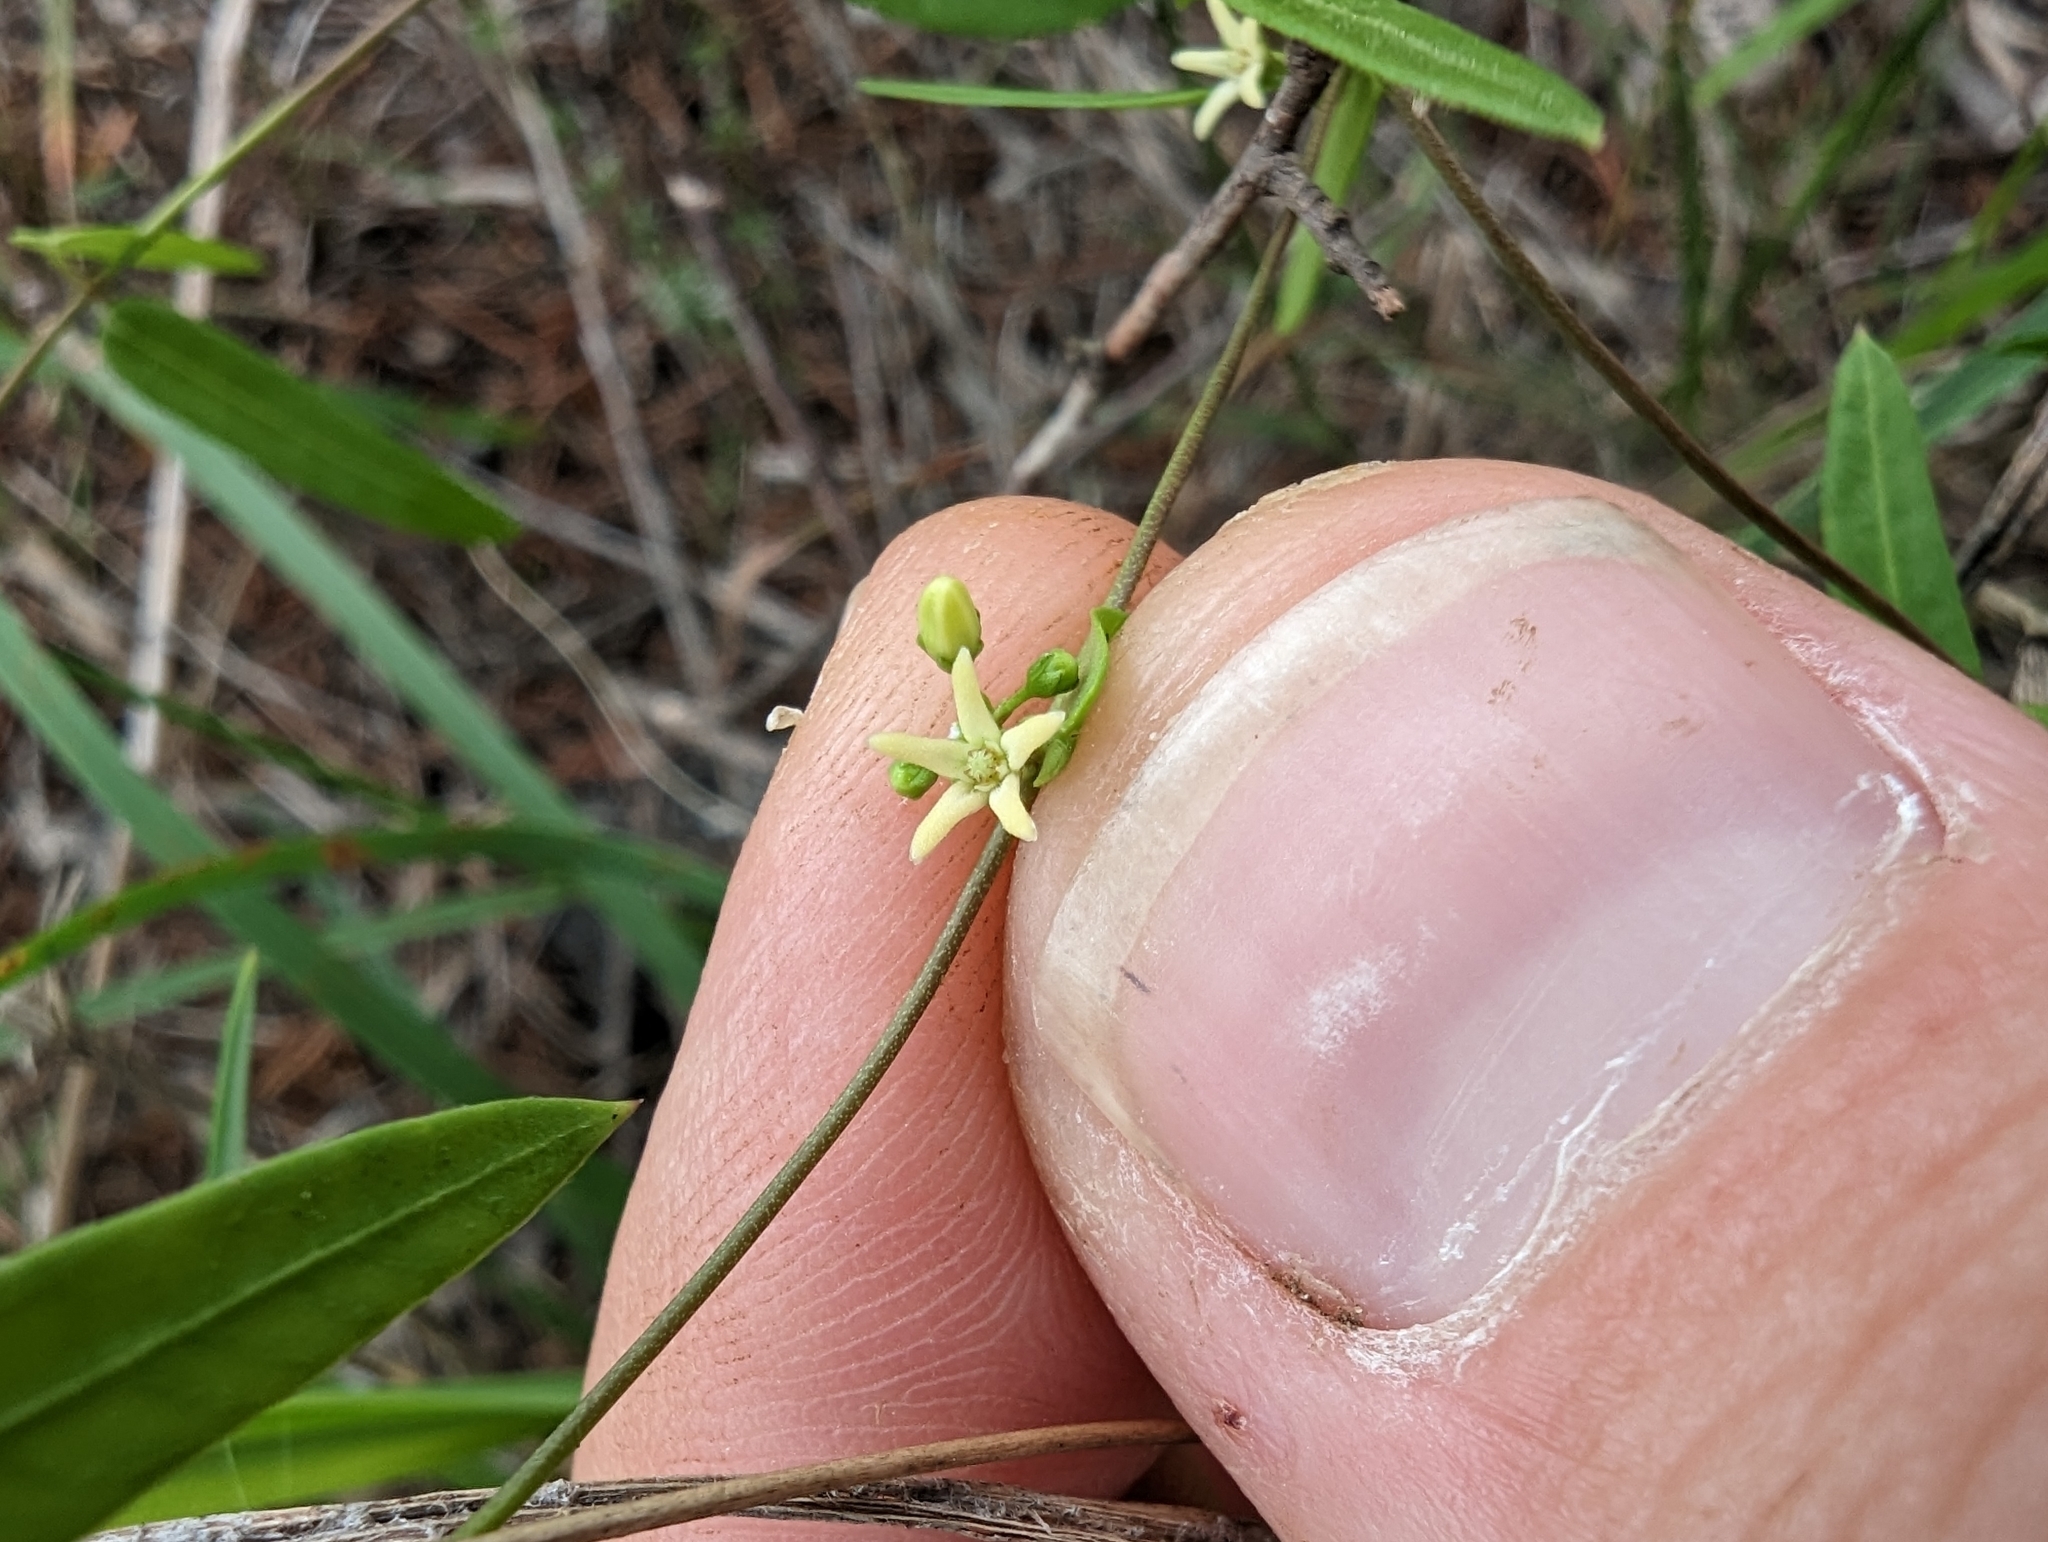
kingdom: Plantae
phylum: Tracheophyta
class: Magnoliopsida
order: Gentianales
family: Apocynaceae
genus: Metastelma
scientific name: Metastelma palmeri
